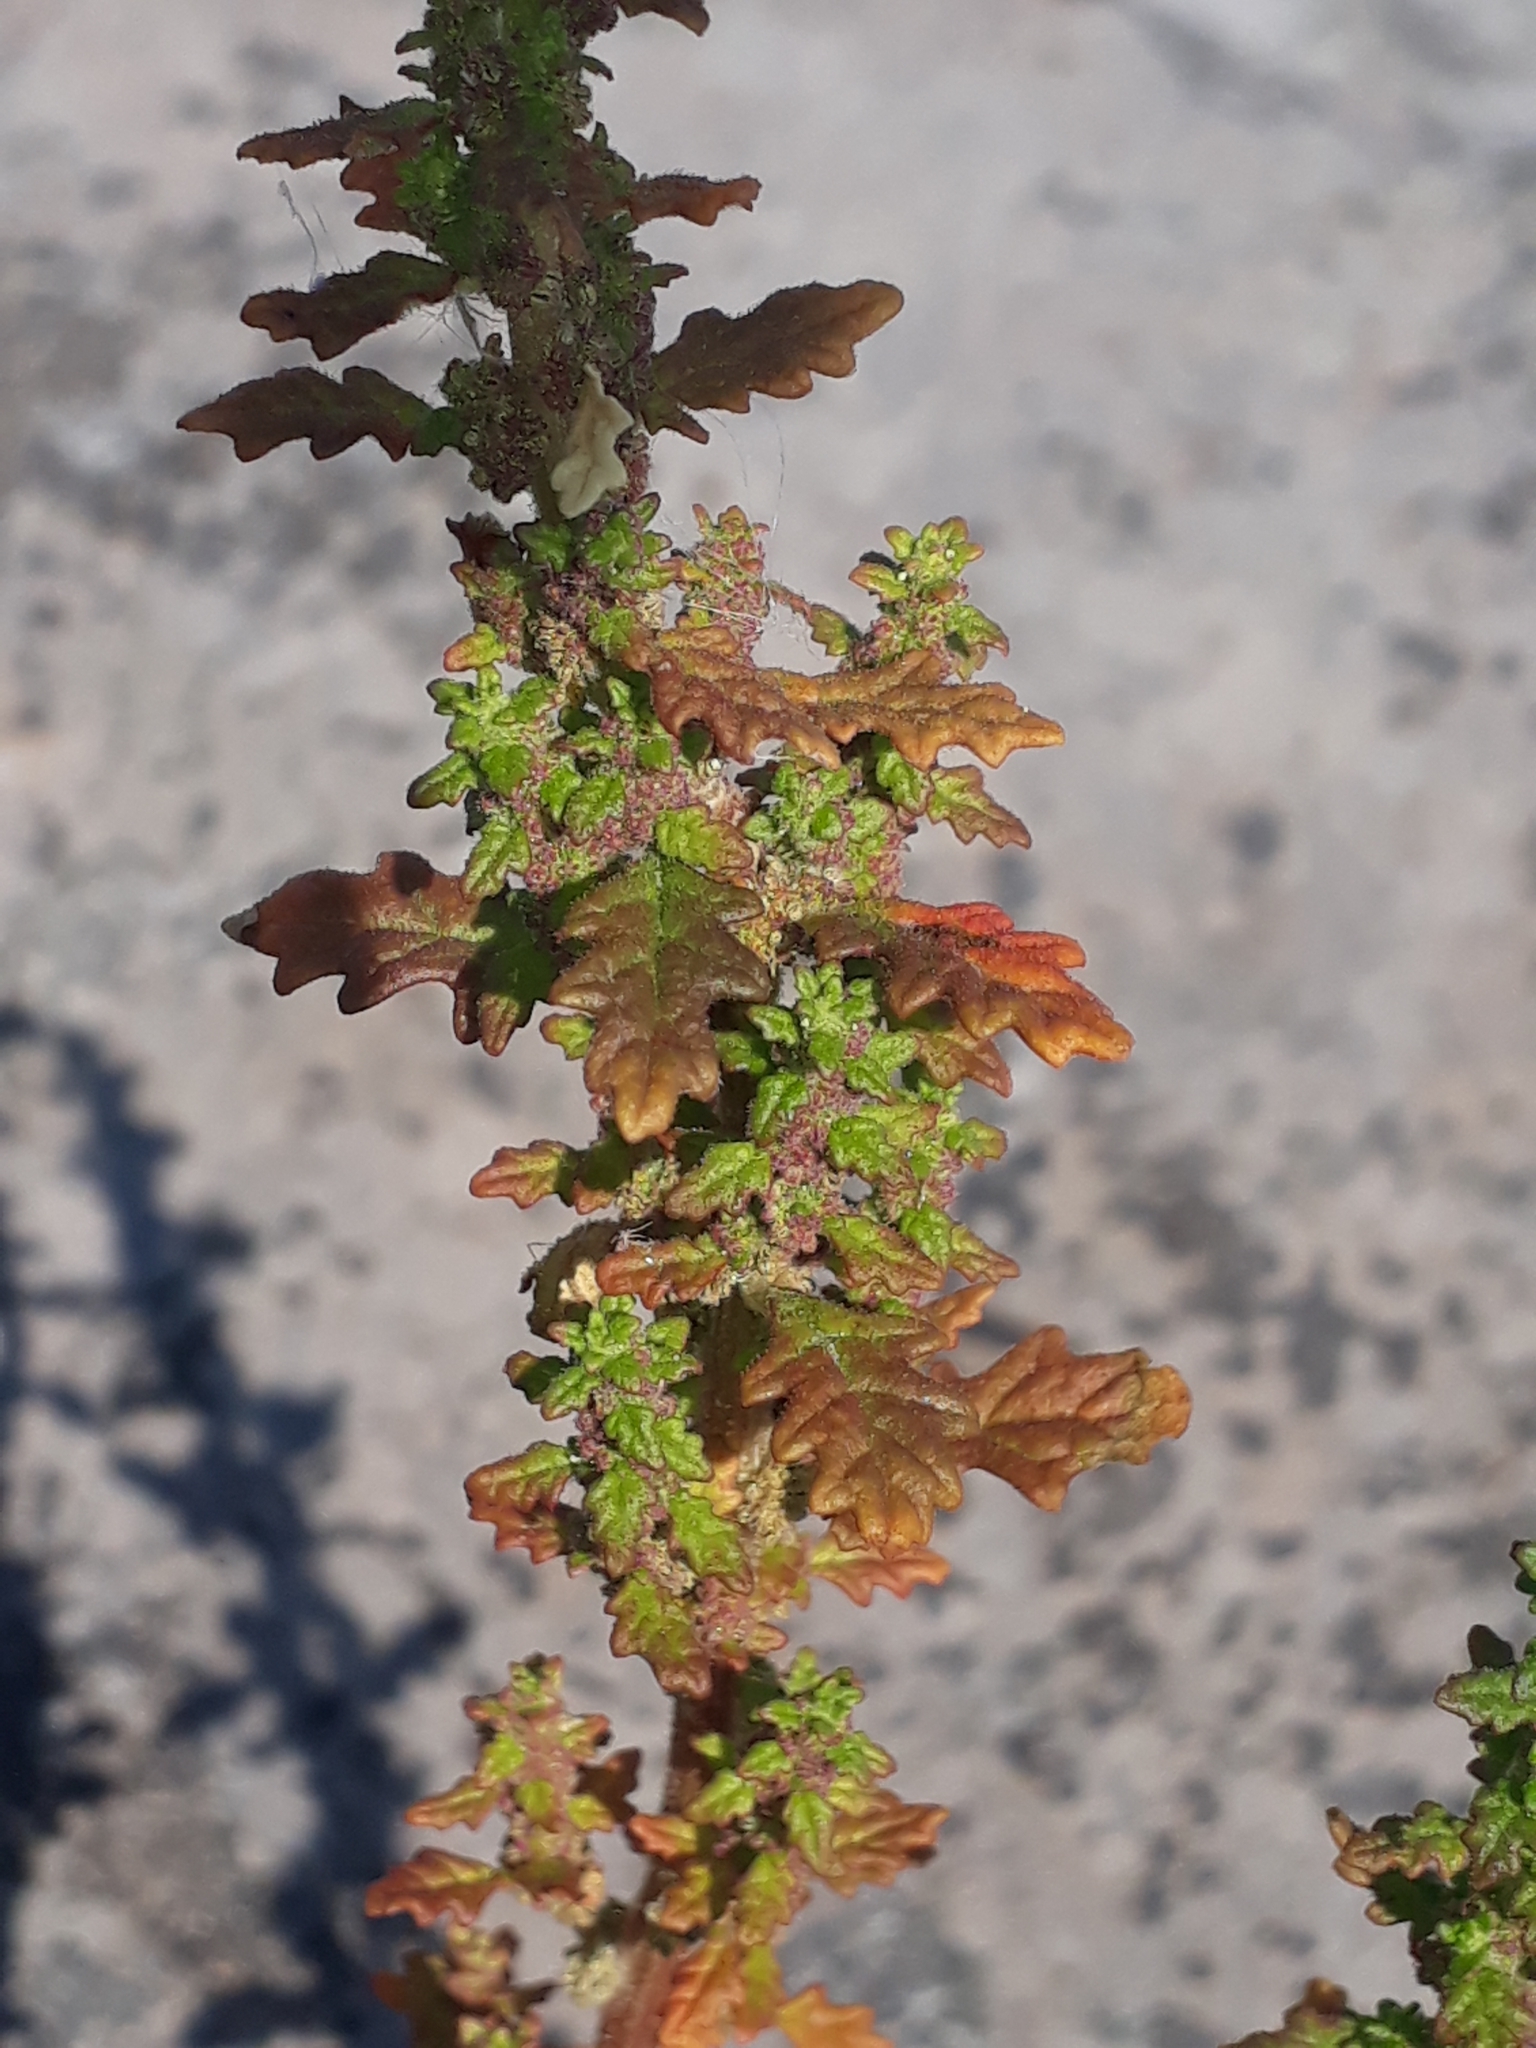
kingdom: Plantae
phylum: Tracheophyta
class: Magnoliopsida
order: Caryophyllales
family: Amaranthaceae
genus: Dysphania
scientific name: Dysphania pumilio
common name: Clammy goosefoot
